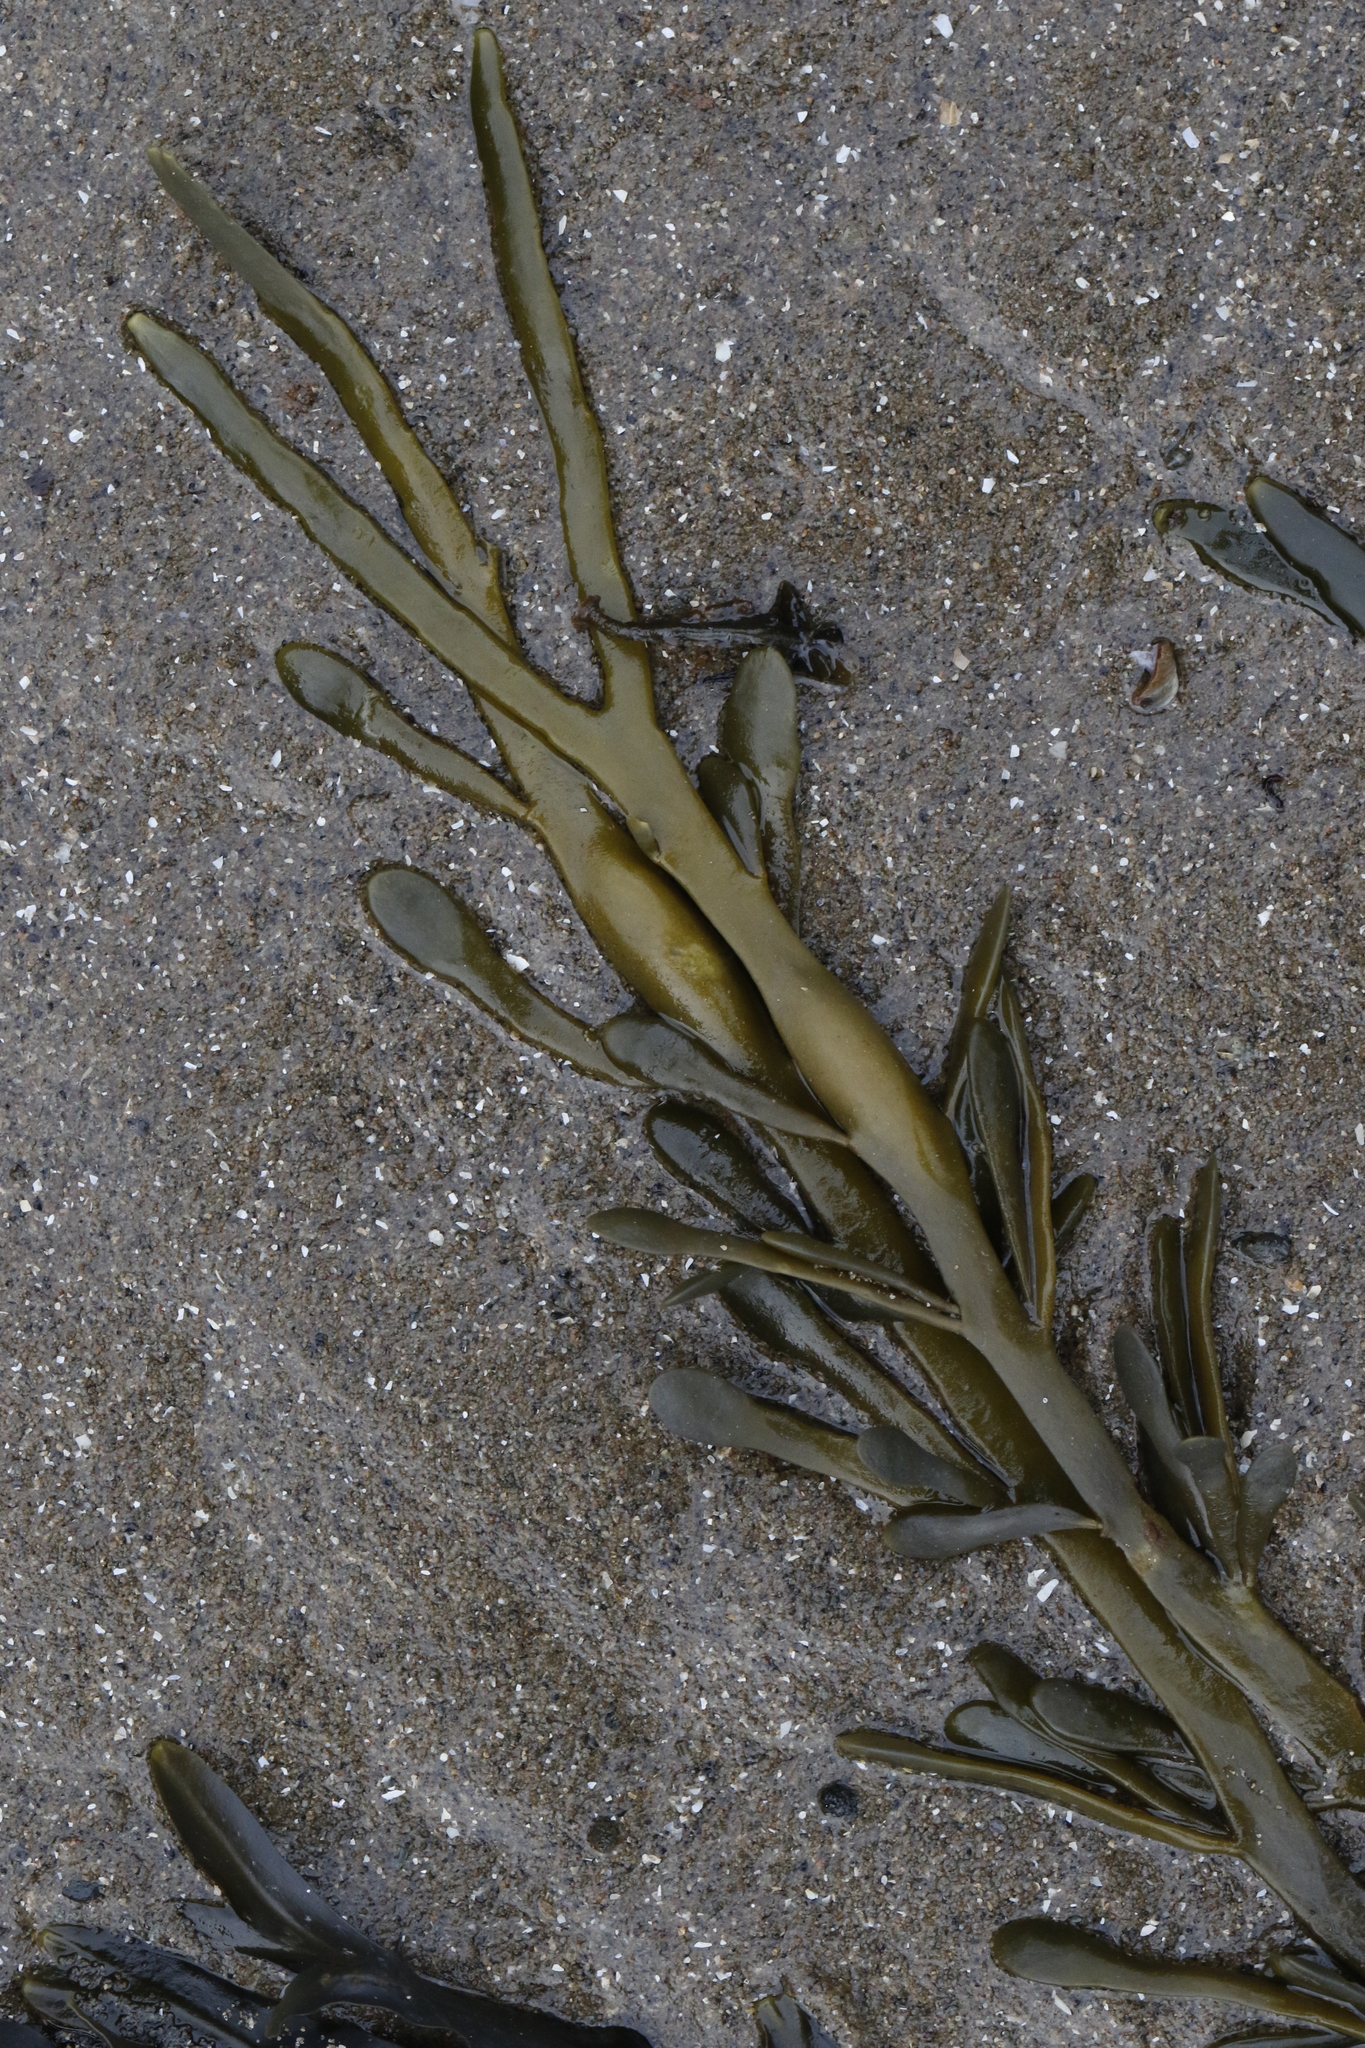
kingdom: Chromista
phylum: Ochrophyta
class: Phaeophyceae
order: Fucales
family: Fucaceae
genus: Ascophyllum
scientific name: Ascophyllum nodosum
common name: Knotted wrack
